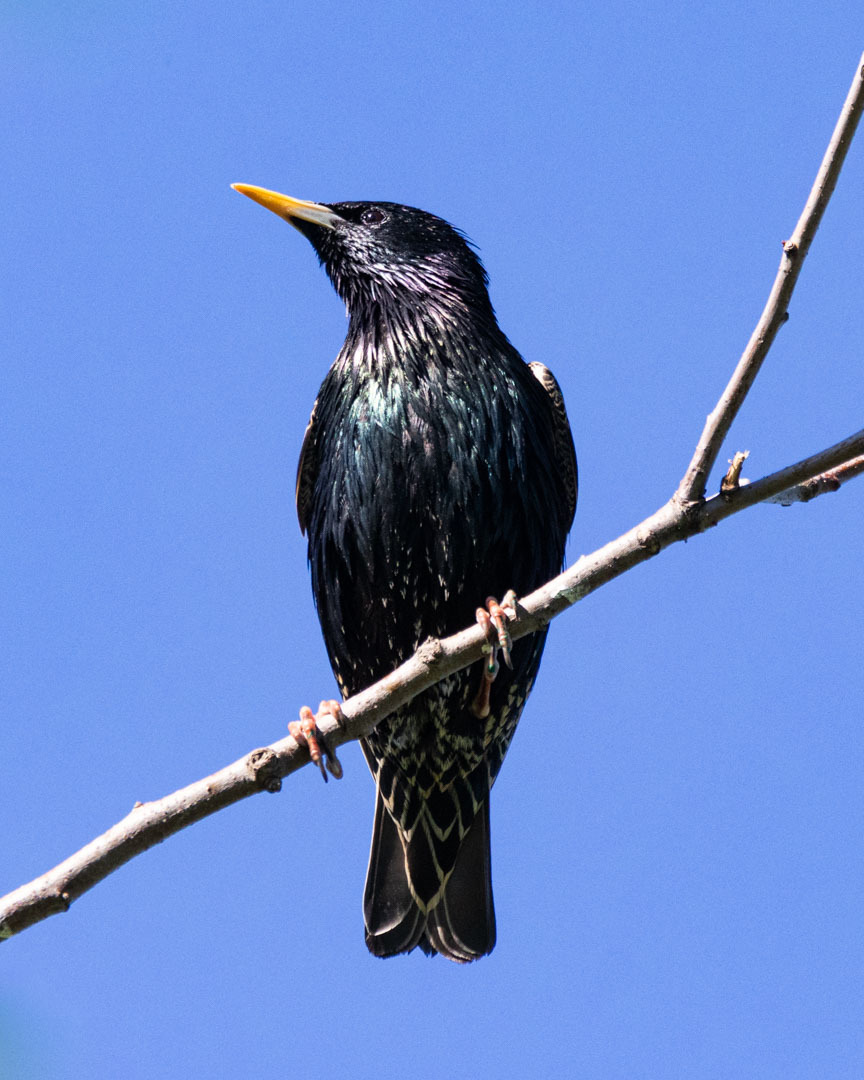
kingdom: Animalia
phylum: Chordata
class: Aves
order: Passeriformes
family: Sturnidae
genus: Sturnus
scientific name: Sturnus vulgaris
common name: Common starling
